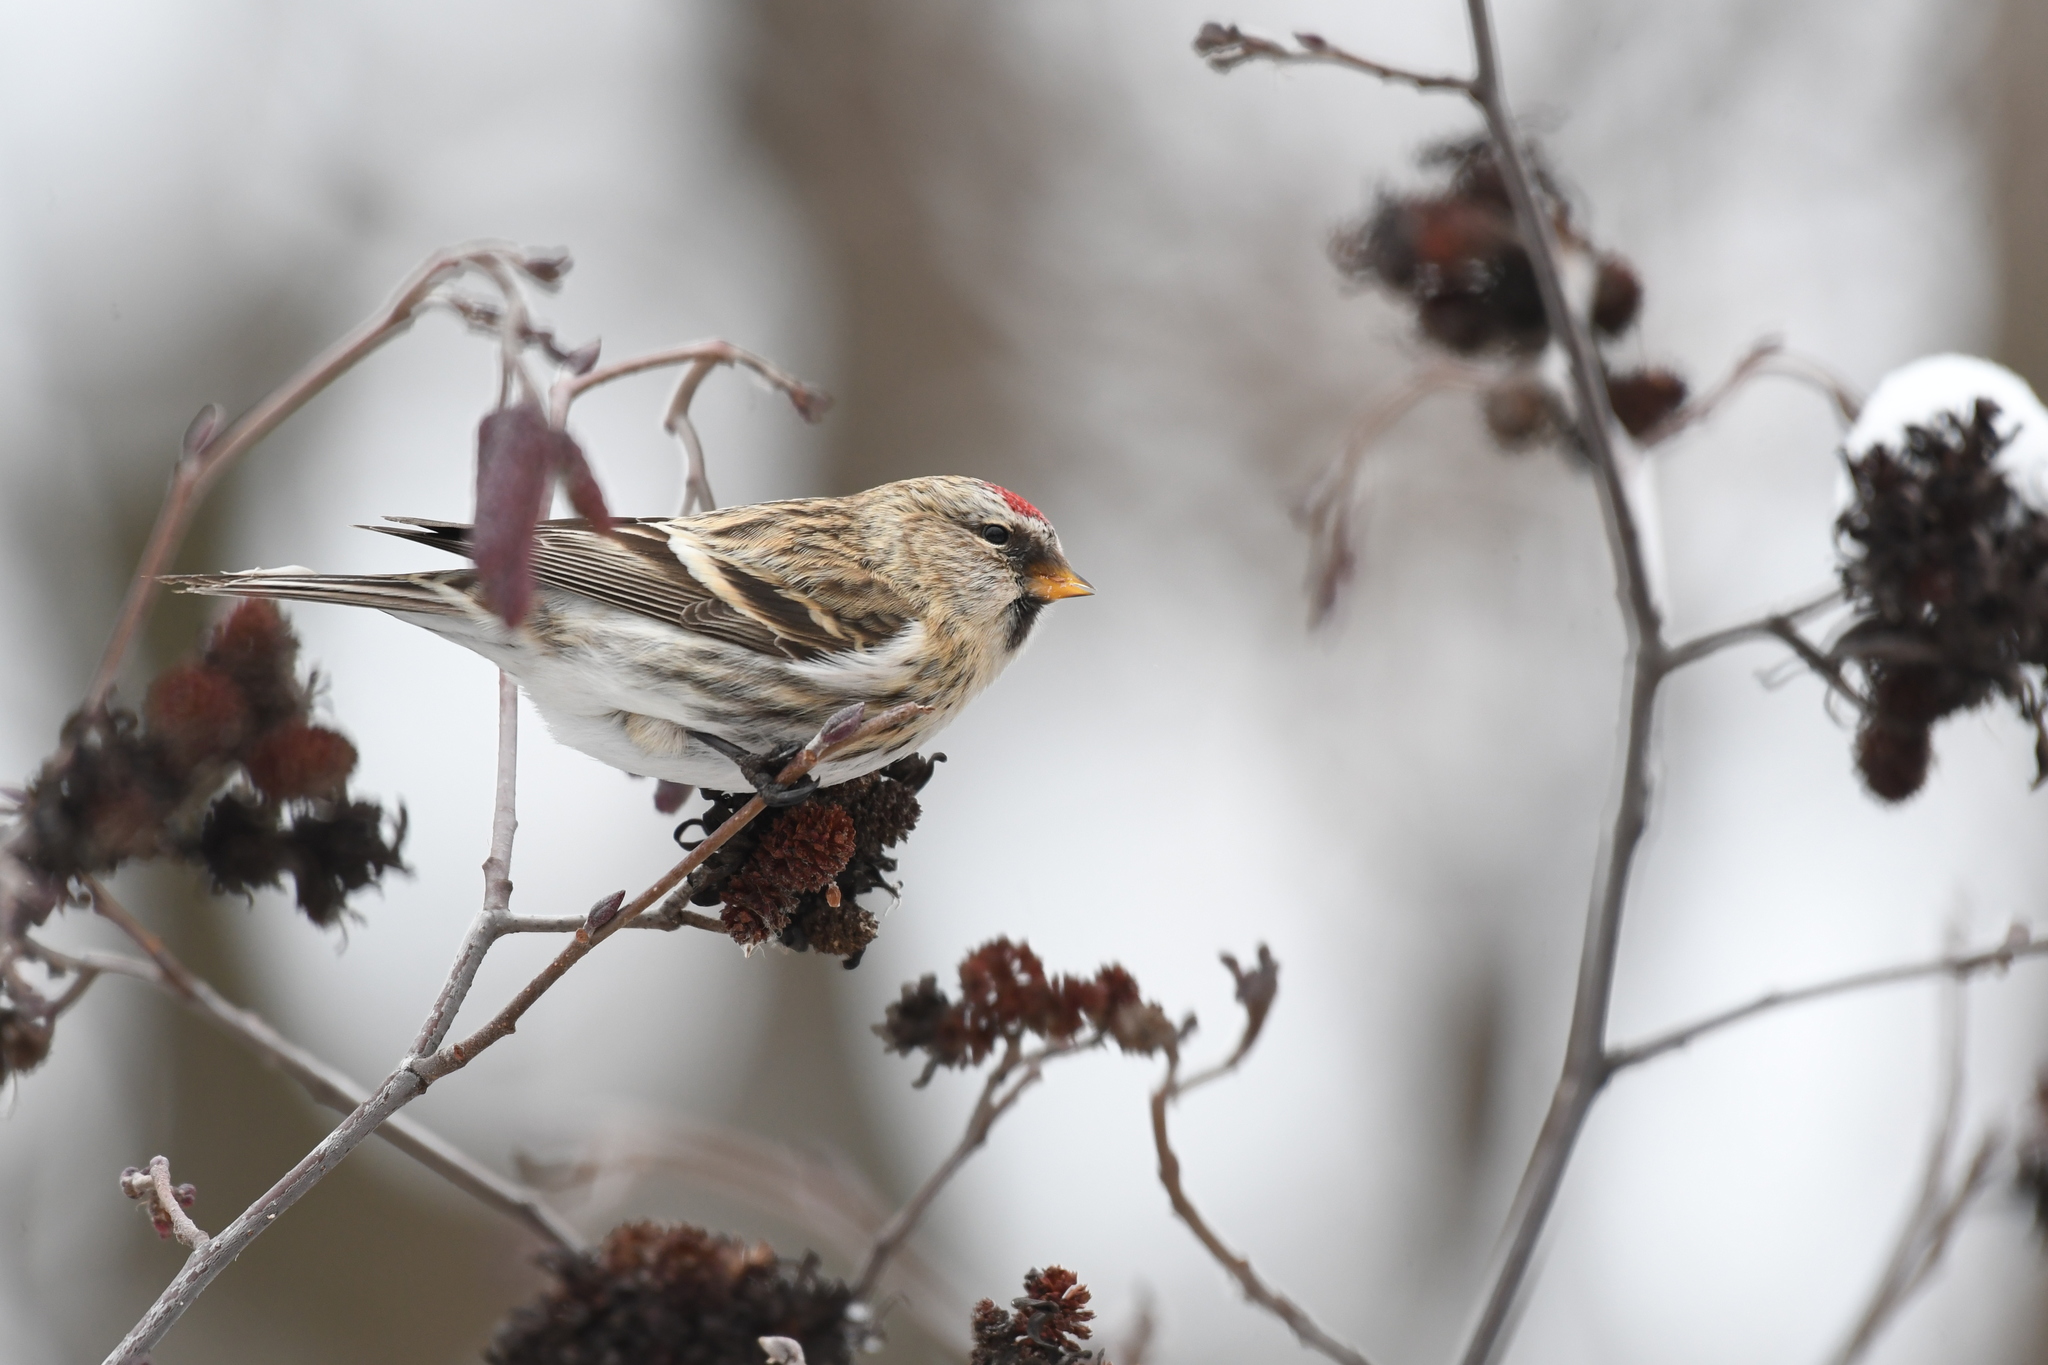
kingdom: Animalia
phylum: Chordata
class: Aves
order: Passeriformes
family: Fringillidae
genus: Acanthis
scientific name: Acanthis flammea
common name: Common redpoll
